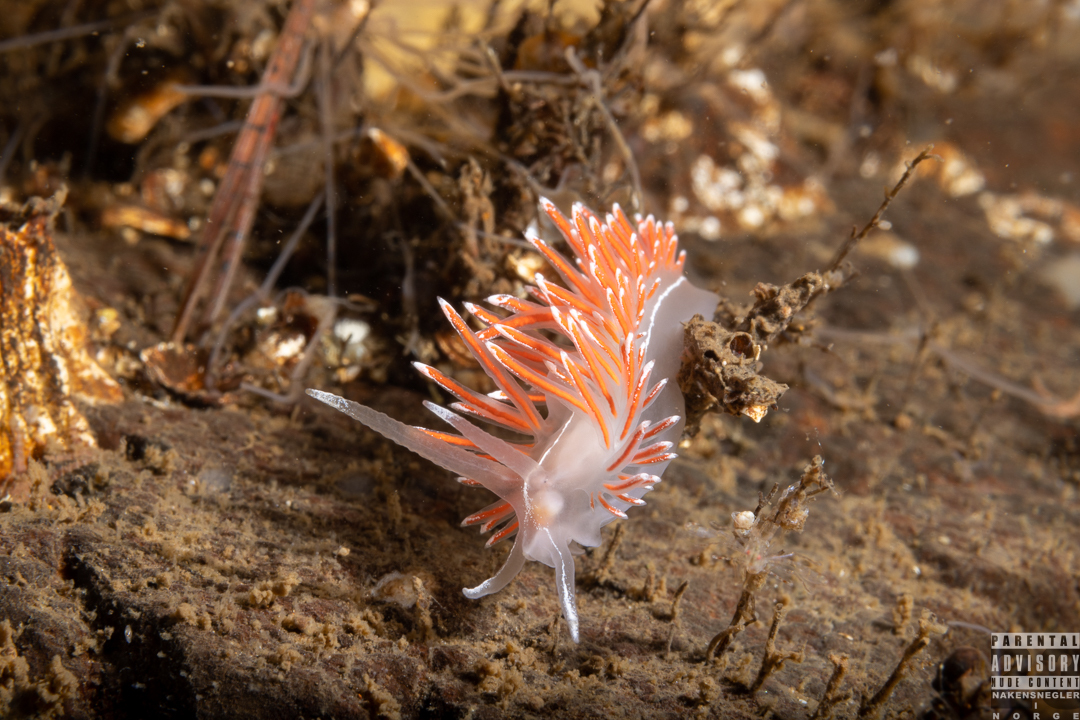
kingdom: Animalia
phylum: Mollusca
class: Gastropoda
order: Nudibranchia
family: Coryphellidae
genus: Coryphella
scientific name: Coryphella lineata
